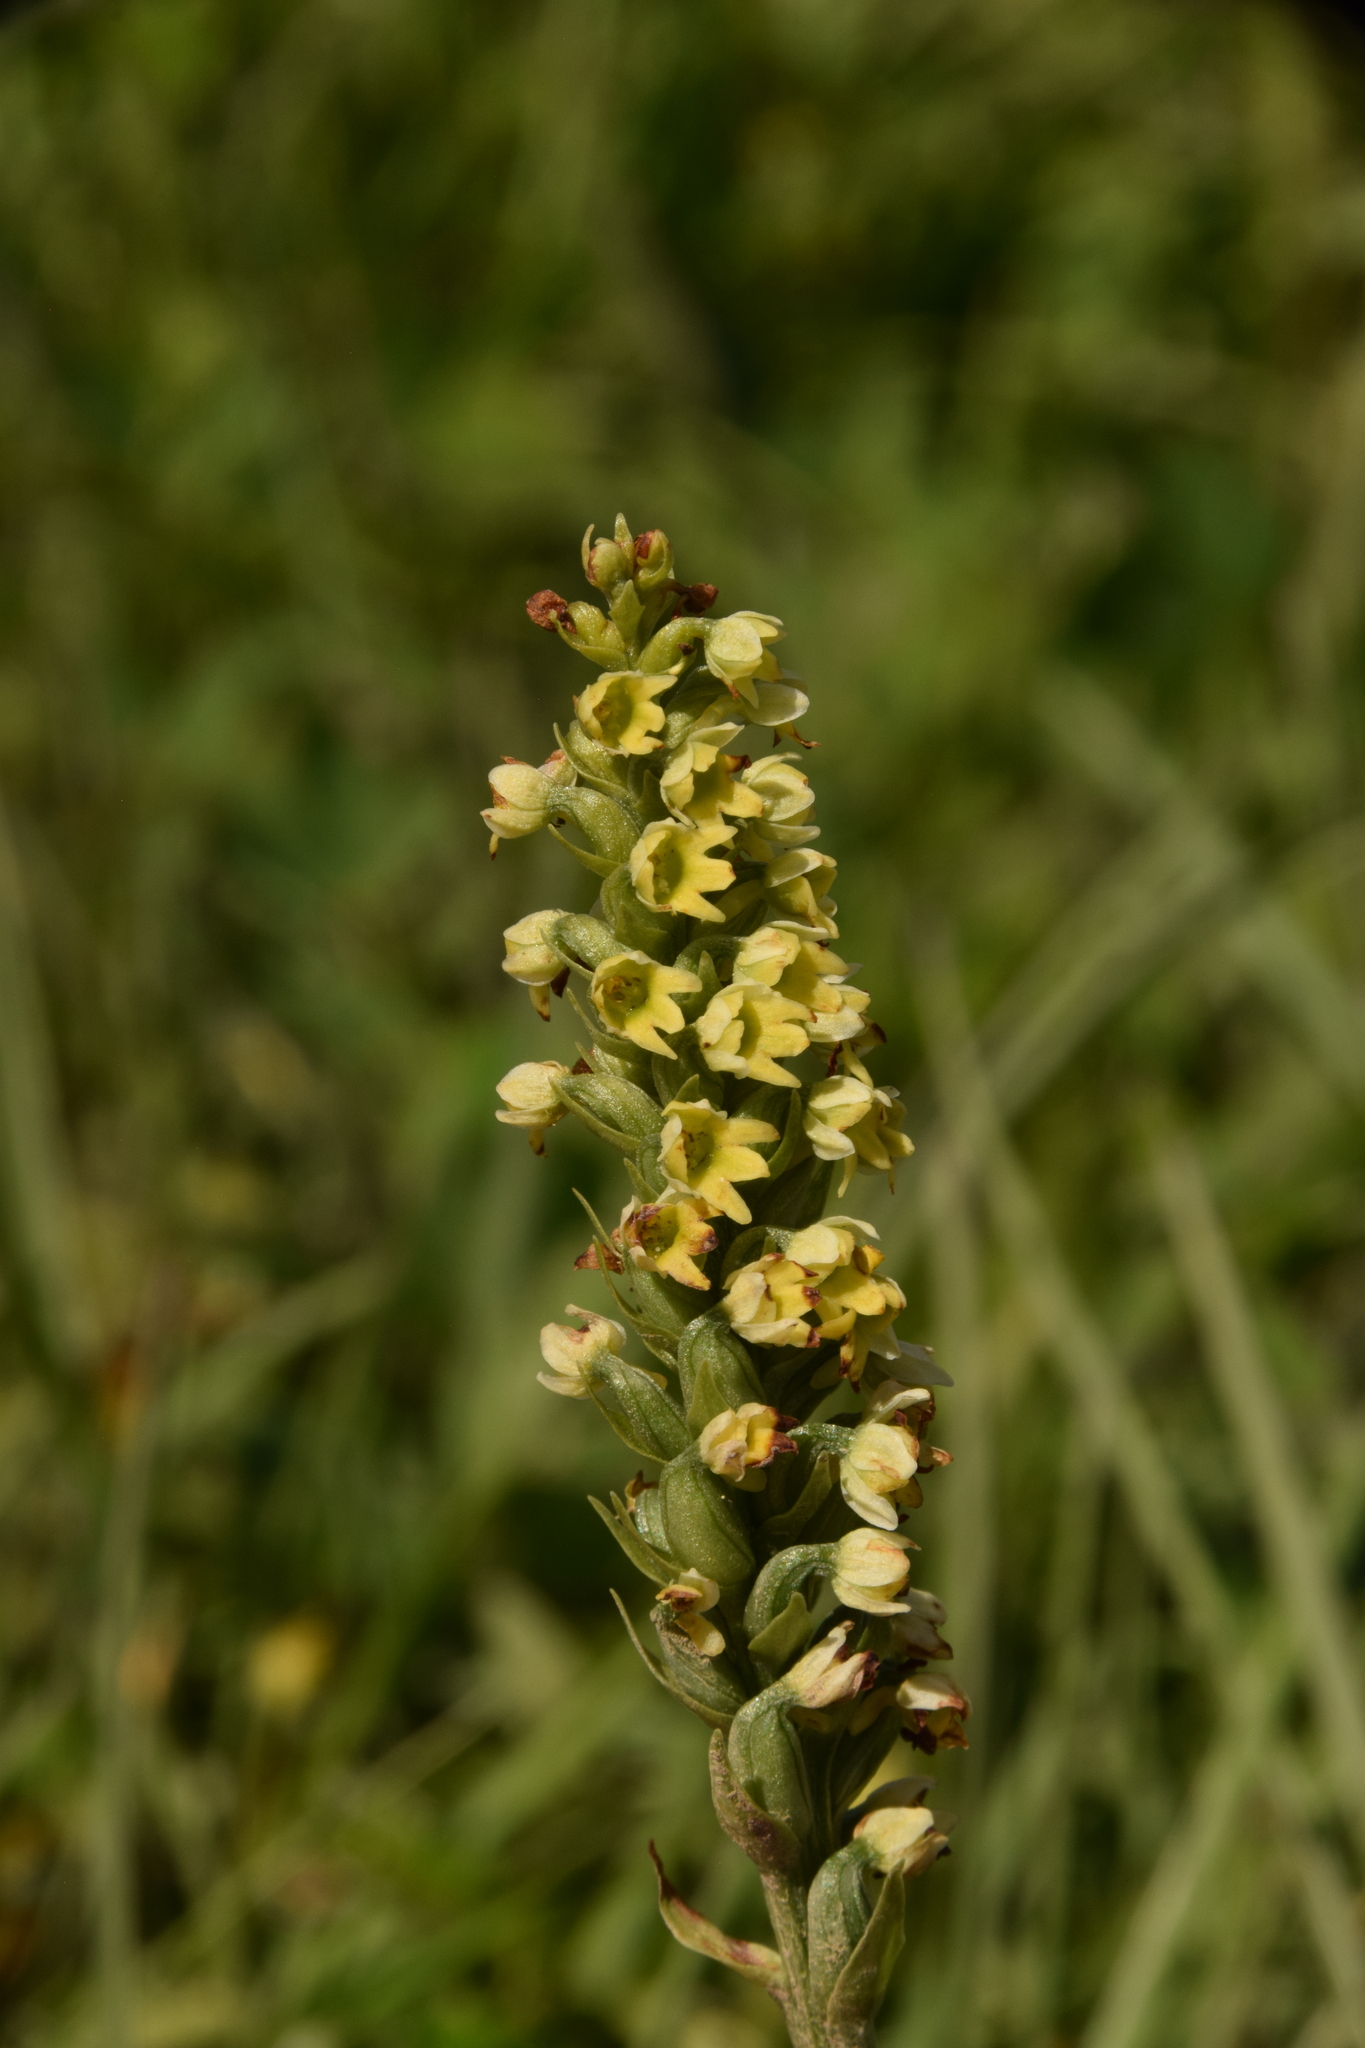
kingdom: Plantae
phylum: Tracheophyta
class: Liliopsida
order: Asparagales
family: Orchidaceae
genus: Pseudorchis
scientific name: Pseudorchis albida
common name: Small-white orchid
